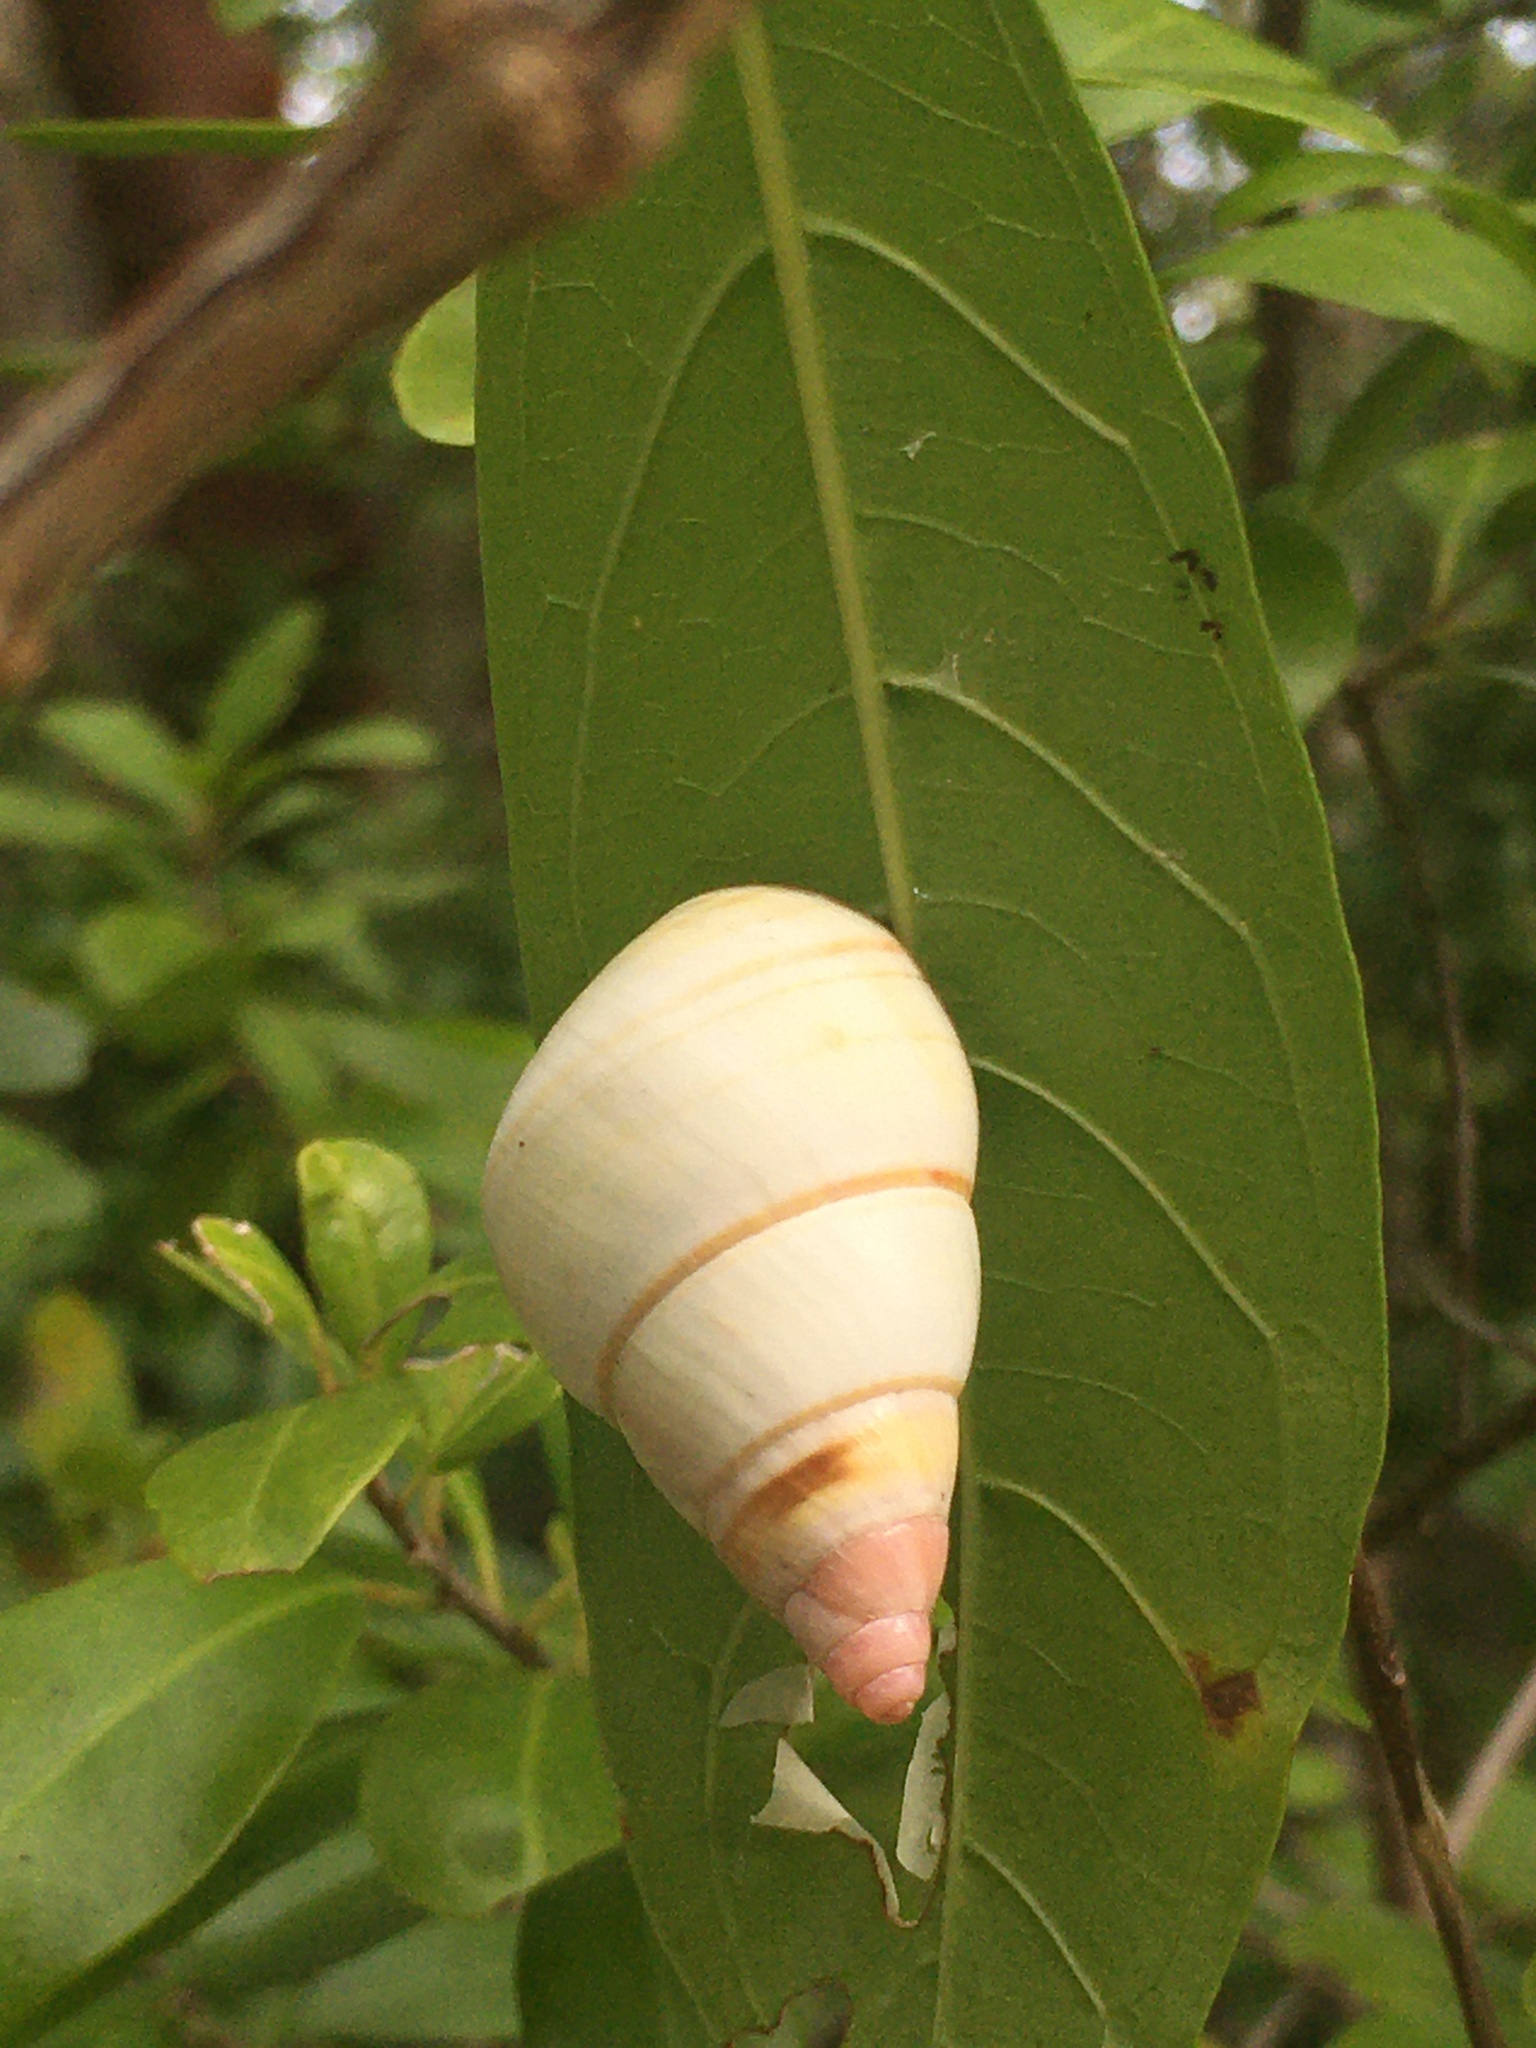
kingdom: Animalia
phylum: Mollusca
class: Gastropoda
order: Stylommatophora
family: Orthalicidae
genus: Liguus
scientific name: Liguus fasciatus
